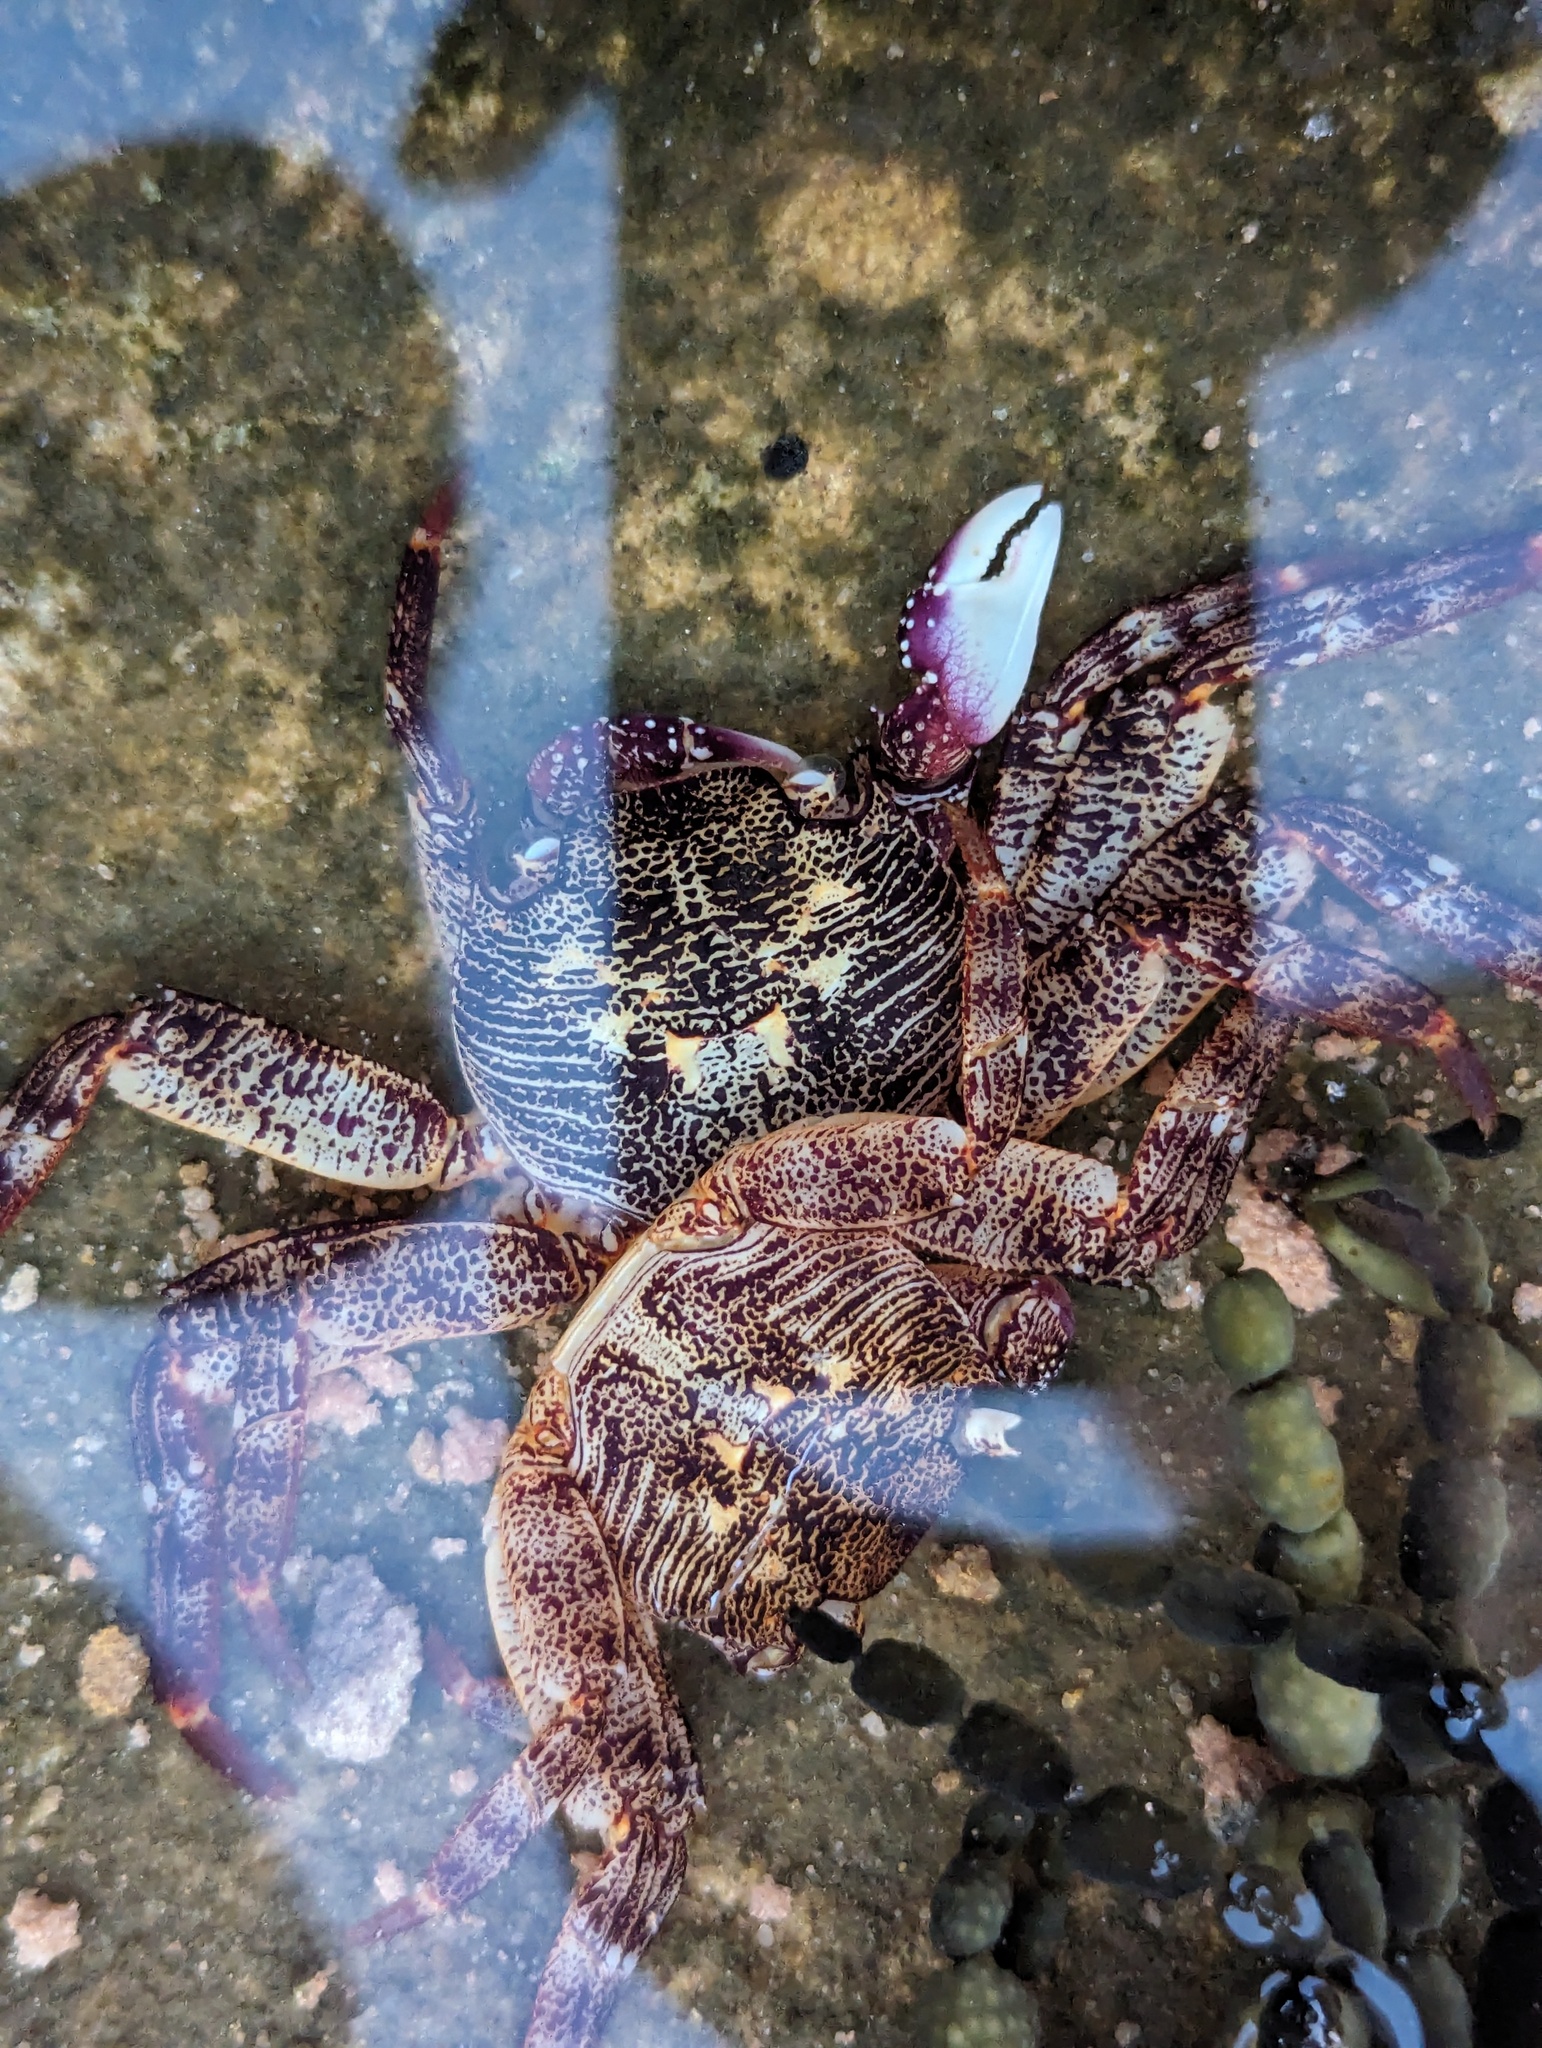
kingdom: Animalia
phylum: Arthropoda
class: Malacostraca
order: Decapoda
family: Grapsidae
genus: Leptograpsus
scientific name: Leptograpsus variegatus
